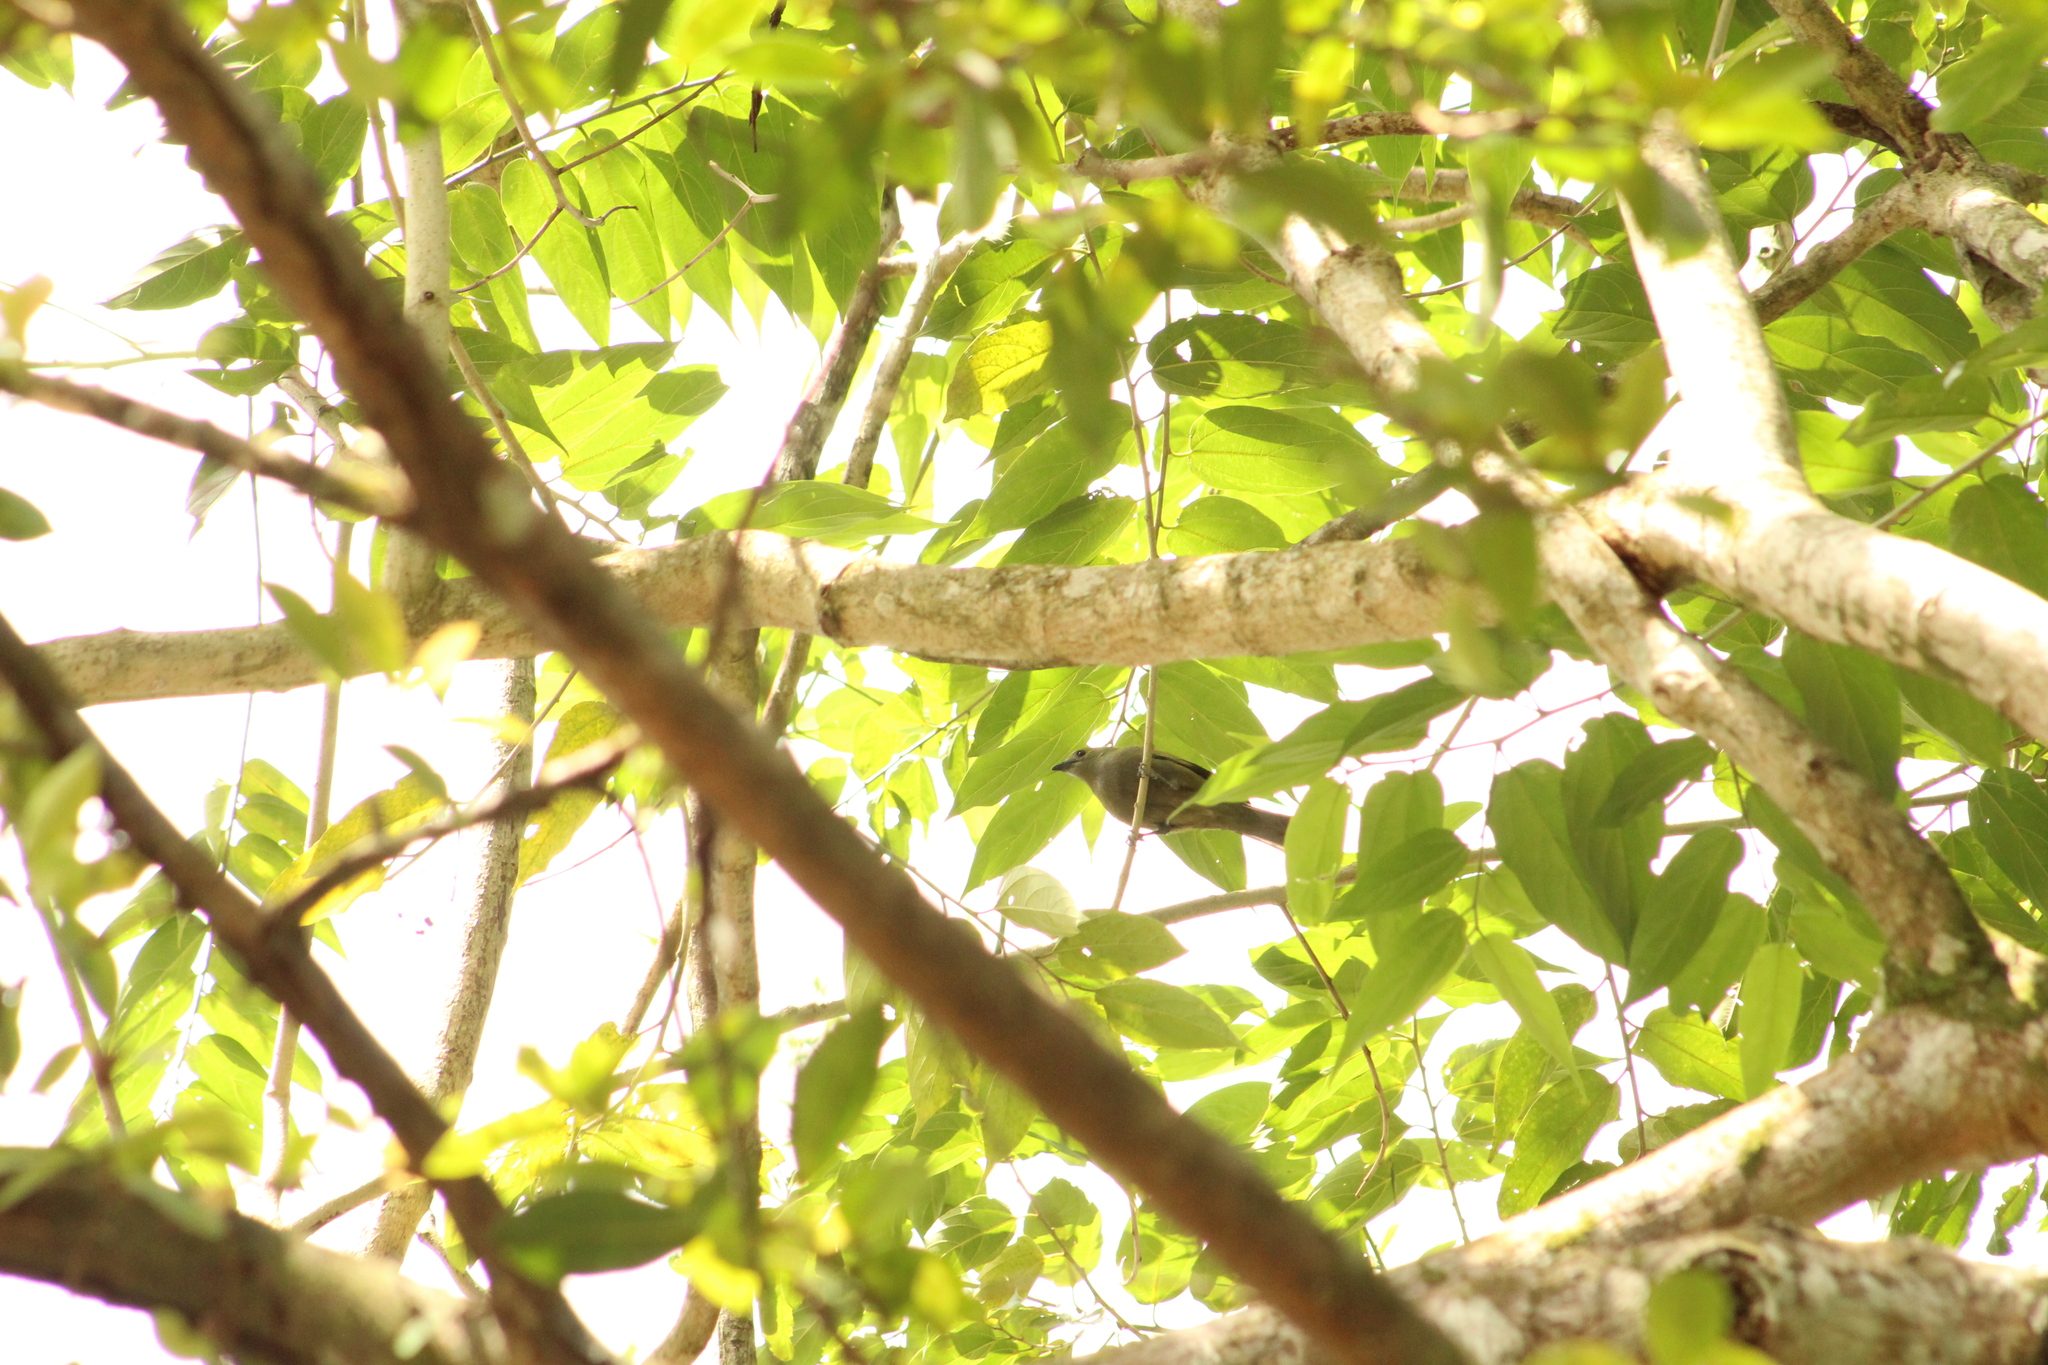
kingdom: Animalia
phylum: Chordata
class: Aves
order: Passeriformes
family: Thraupidae
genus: Thraupis
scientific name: Thraupis palmarum
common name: Palm tanager
